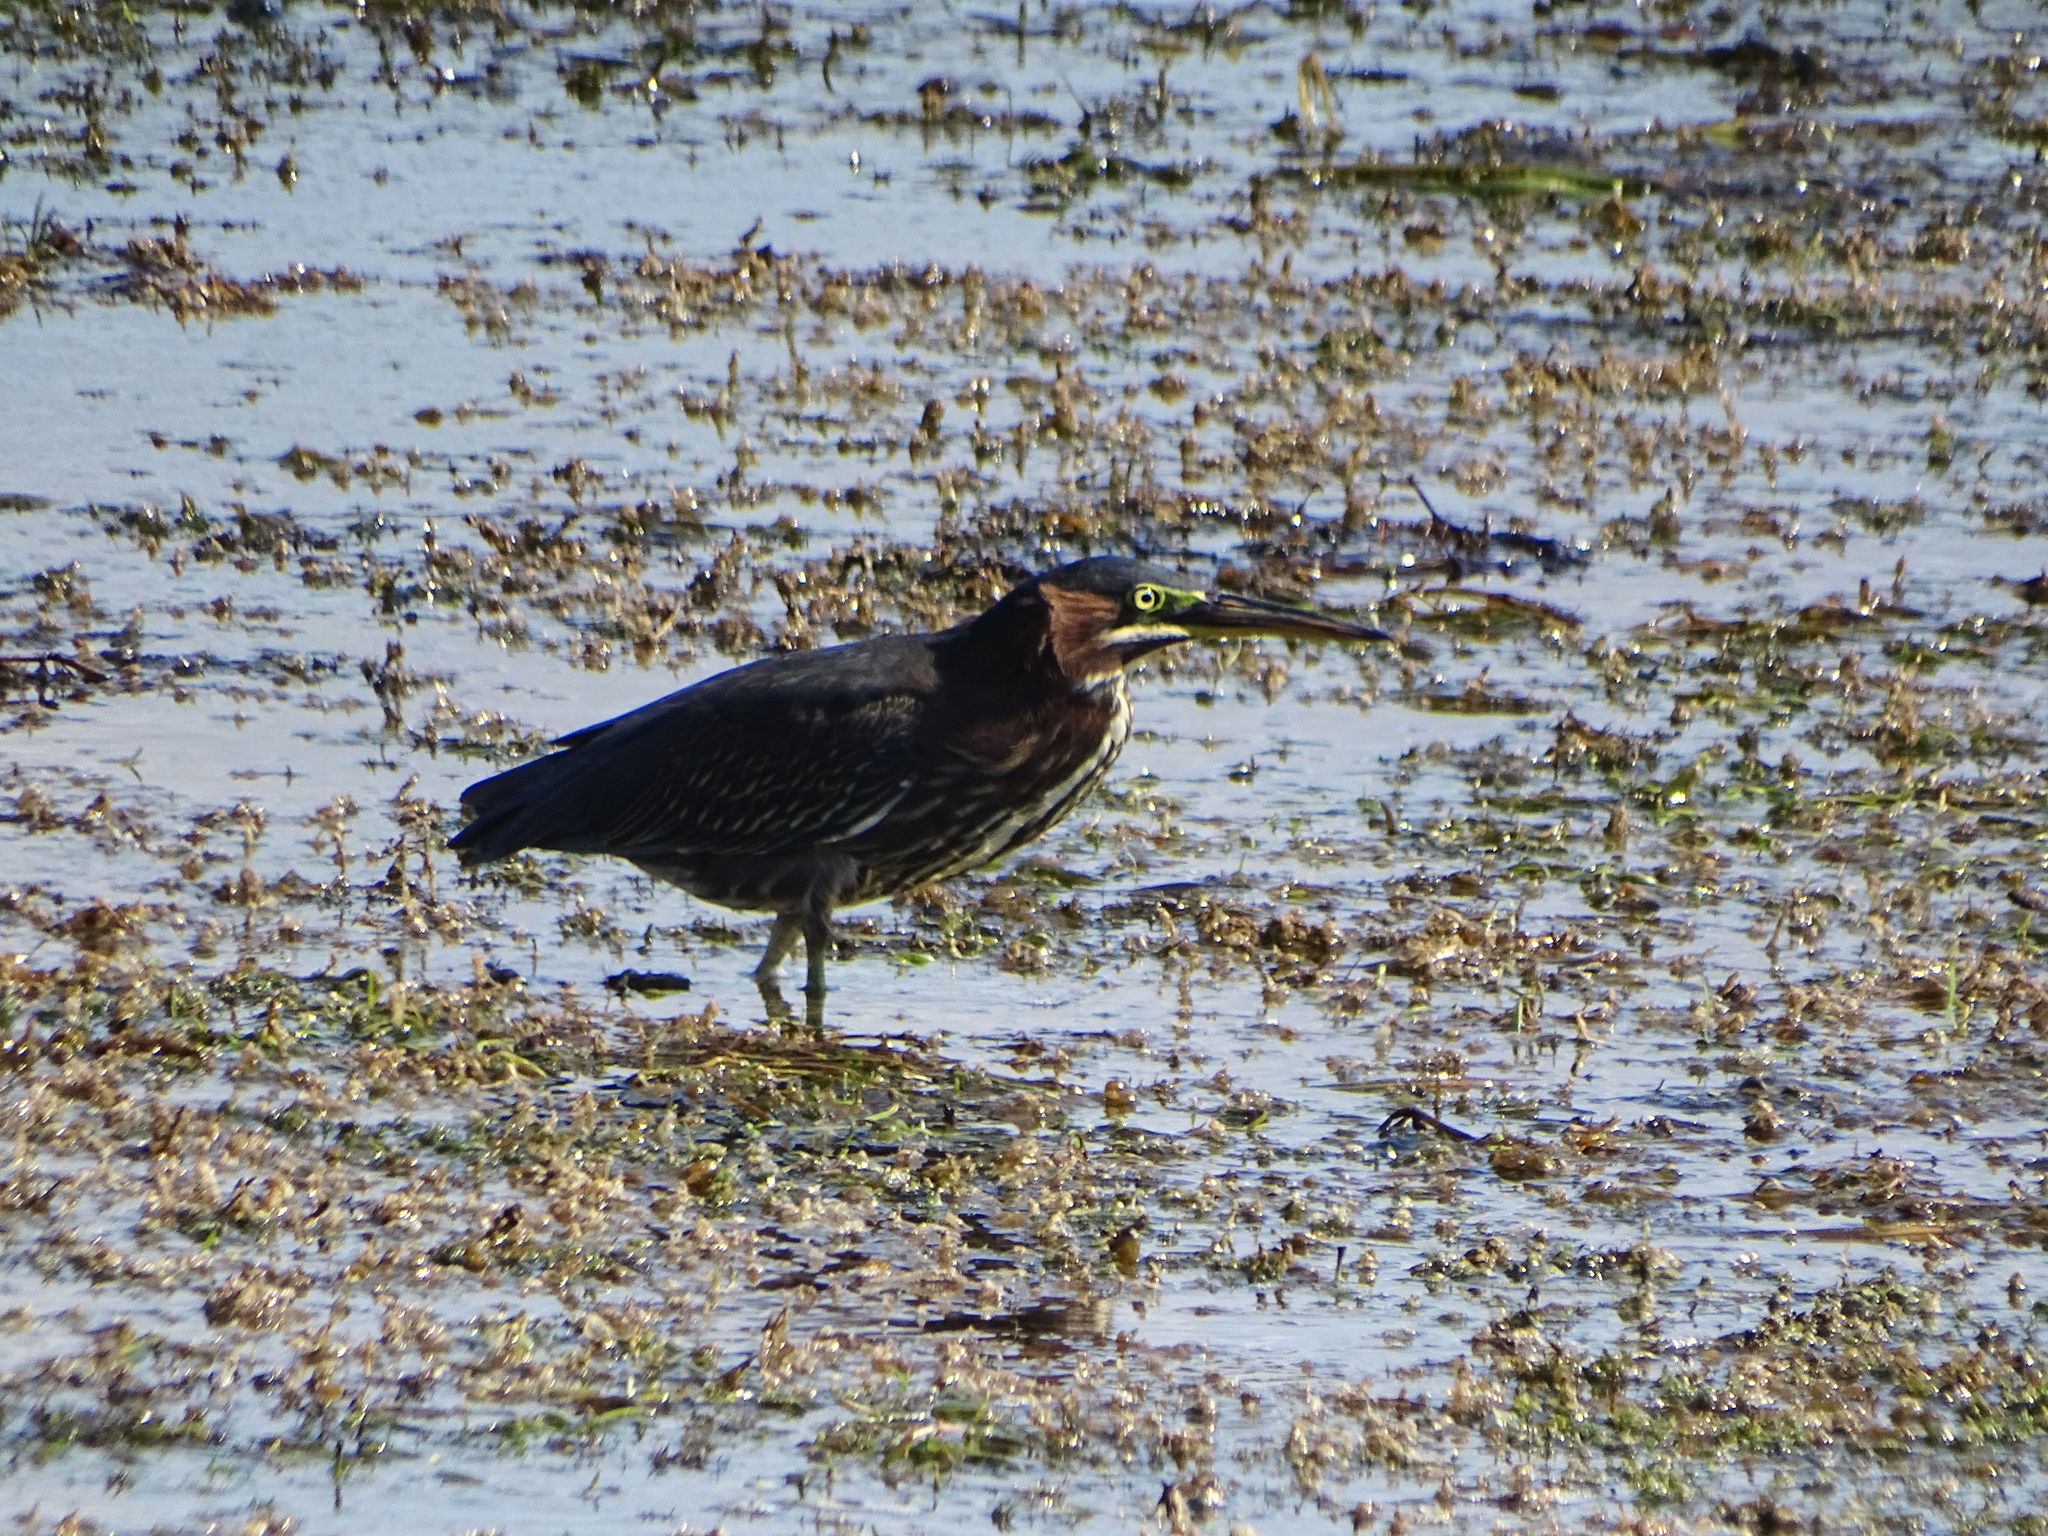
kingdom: Animalia
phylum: Chordata
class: Aves
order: Pelecaniformes
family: Ardeidae
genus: Butorides
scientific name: Butorides virescens
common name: Green heron
